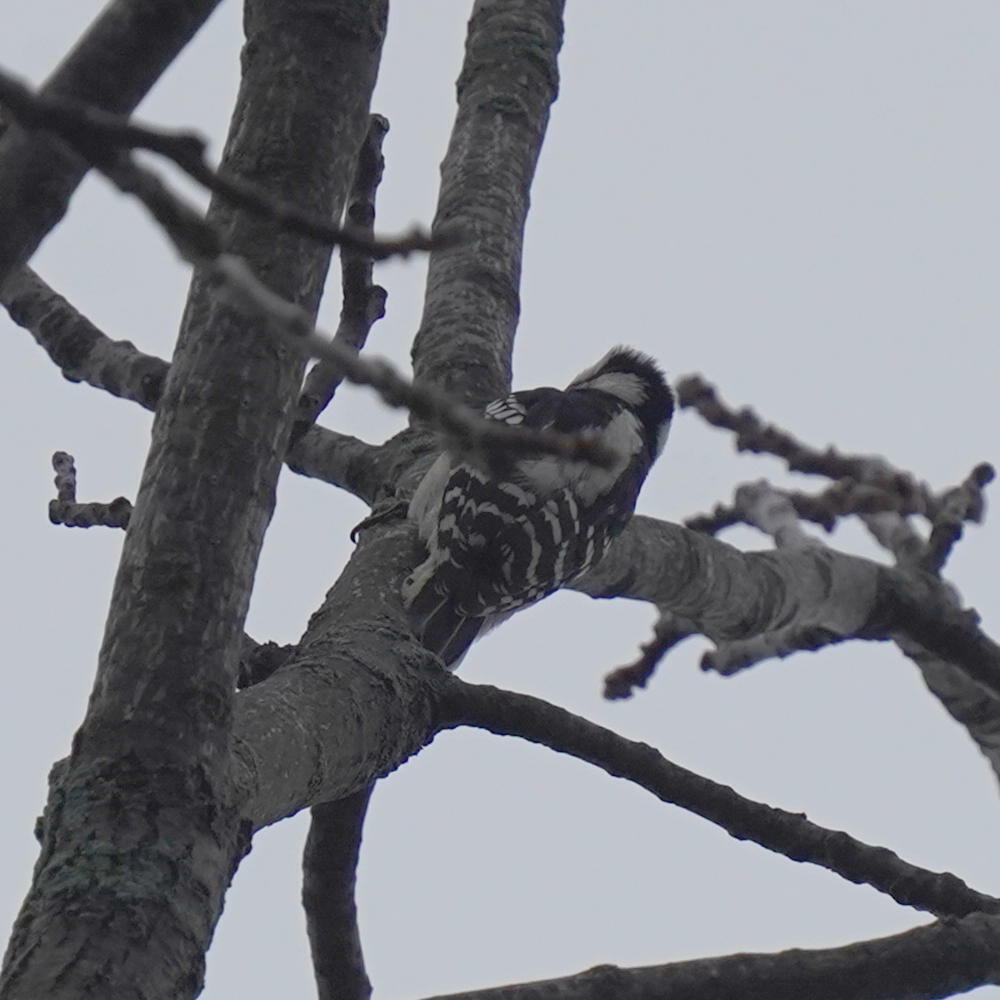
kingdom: Animalia
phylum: Chordata
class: Aves
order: Piciformes
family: Picidae
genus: Dryobates
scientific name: Dryobates pubescens
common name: Downy woodpecker
